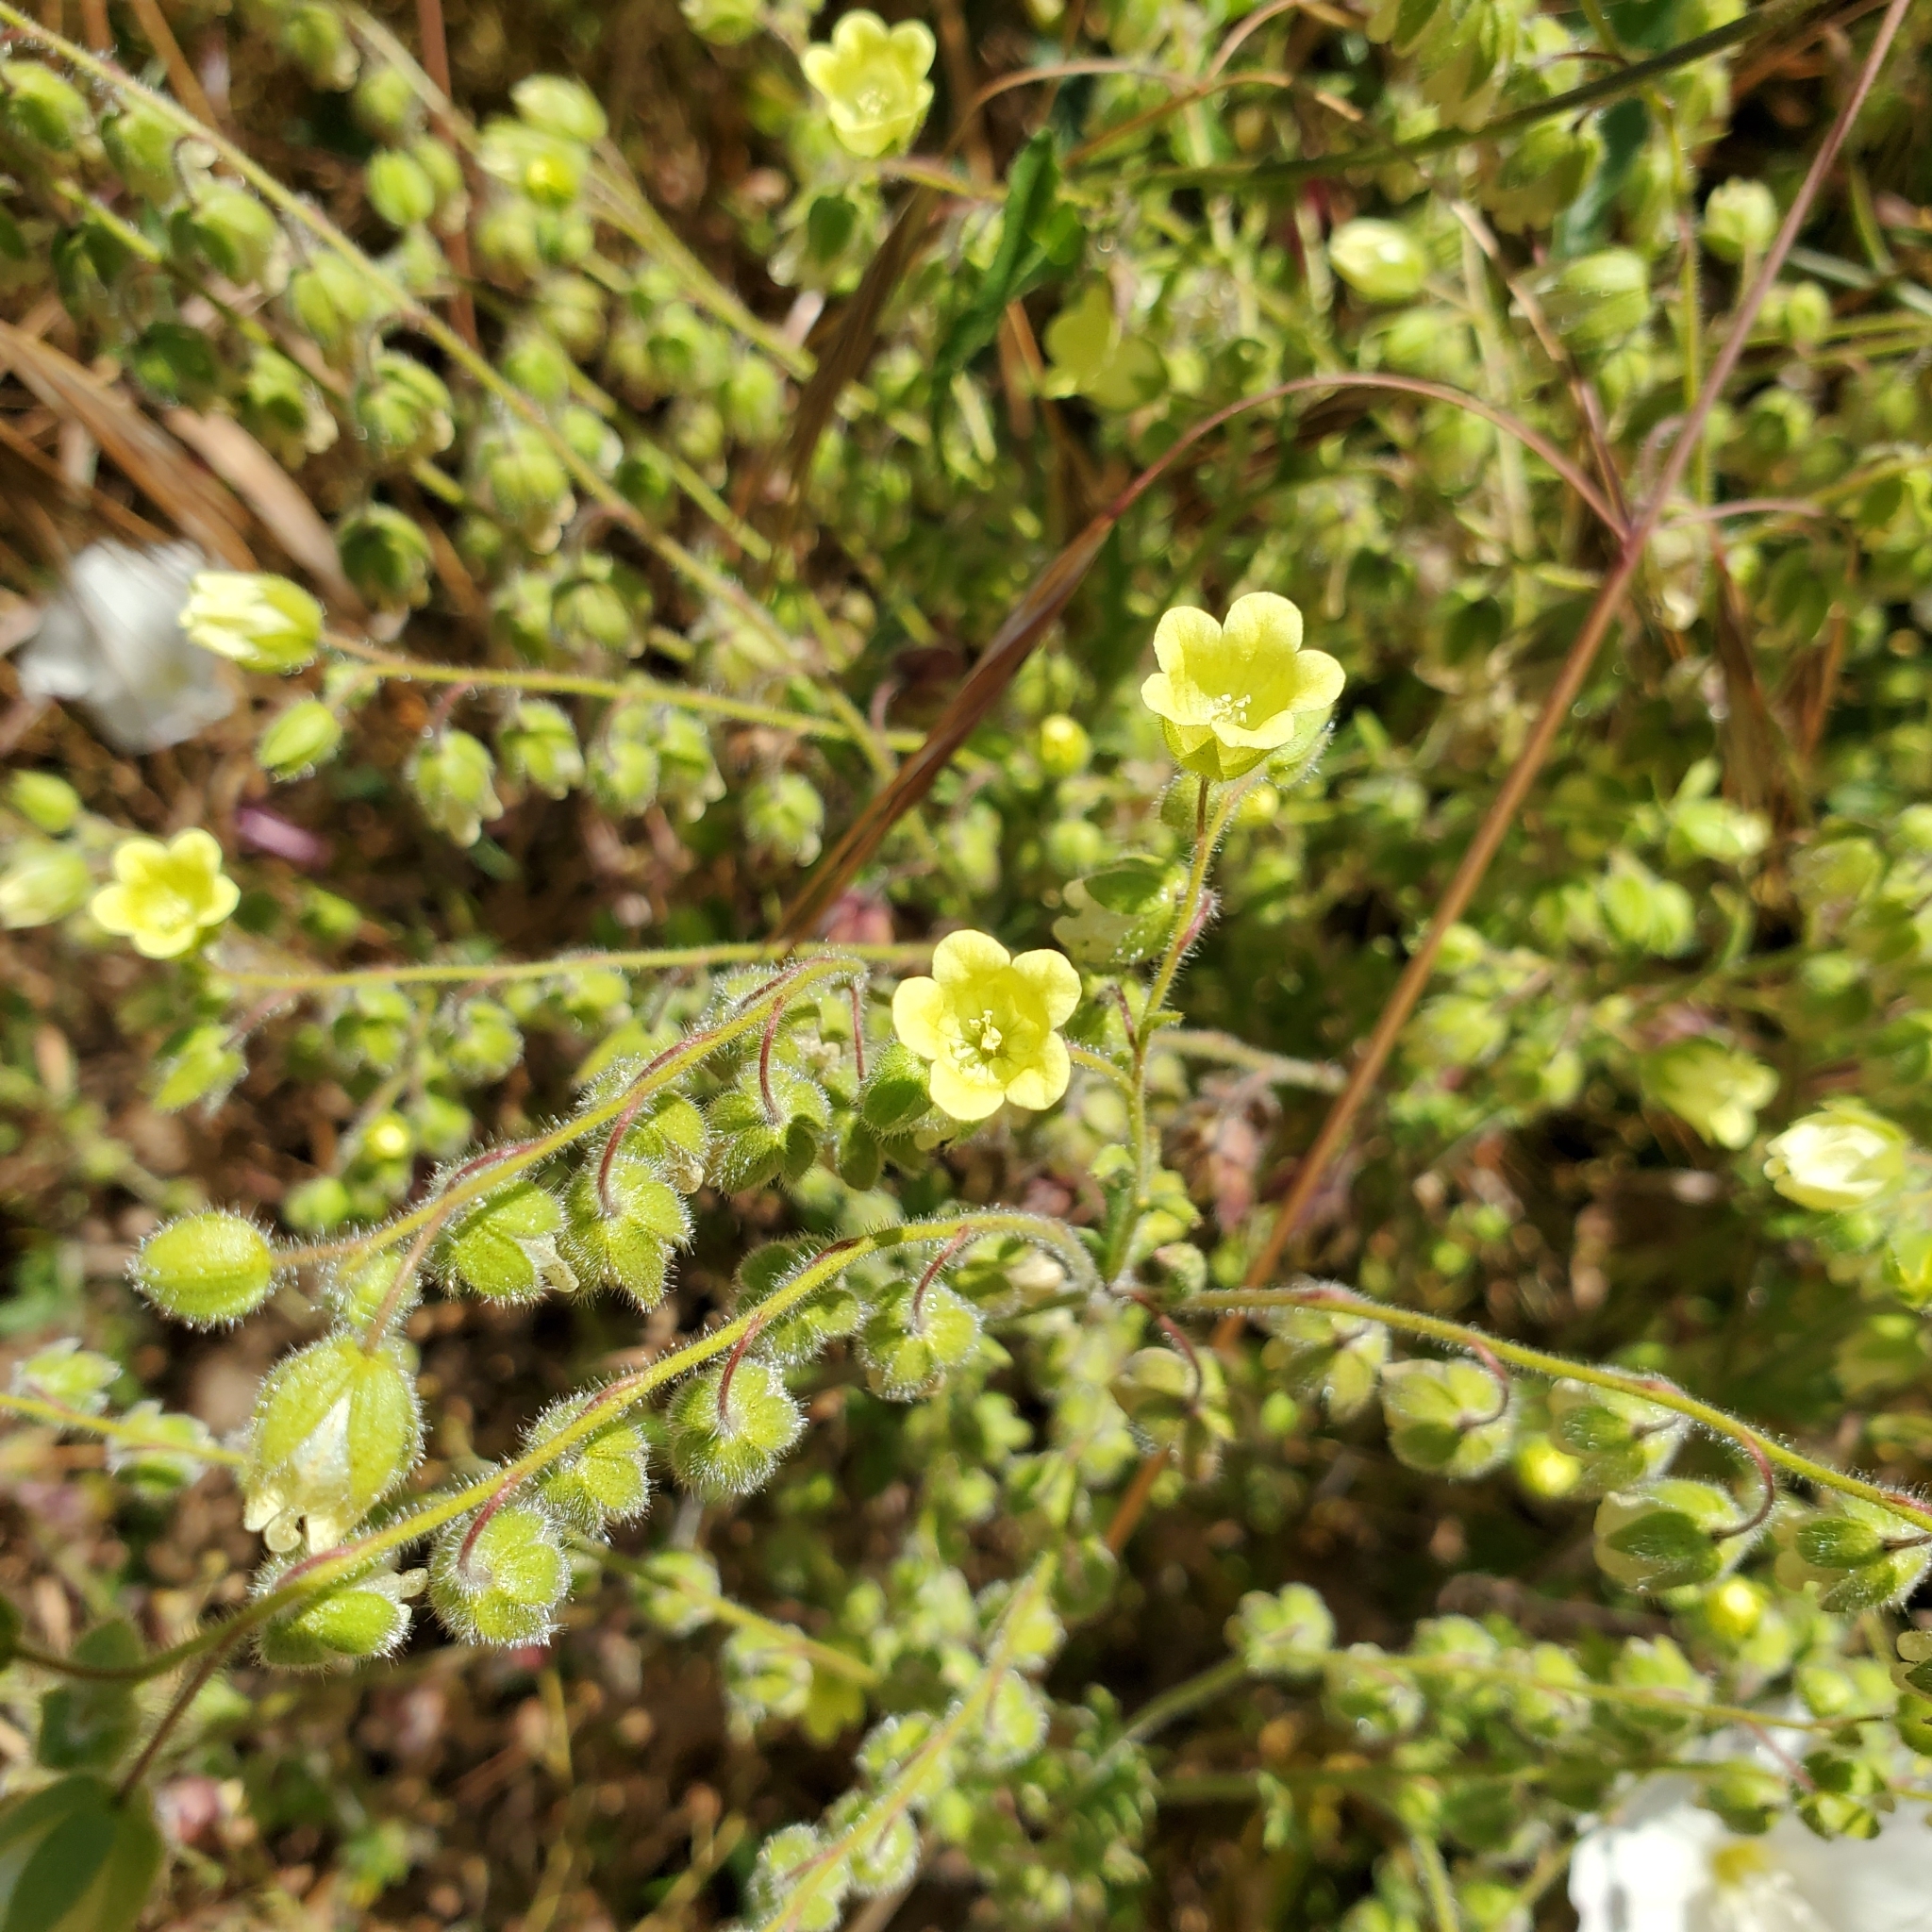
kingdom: Plantae
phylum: Tracheophyta
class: Magnoliopsida
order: Boraginales
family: Hydrophyllaceae
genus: Emmenanthe
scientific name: Emmenanthe penduliflora
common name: Whispering-bells
